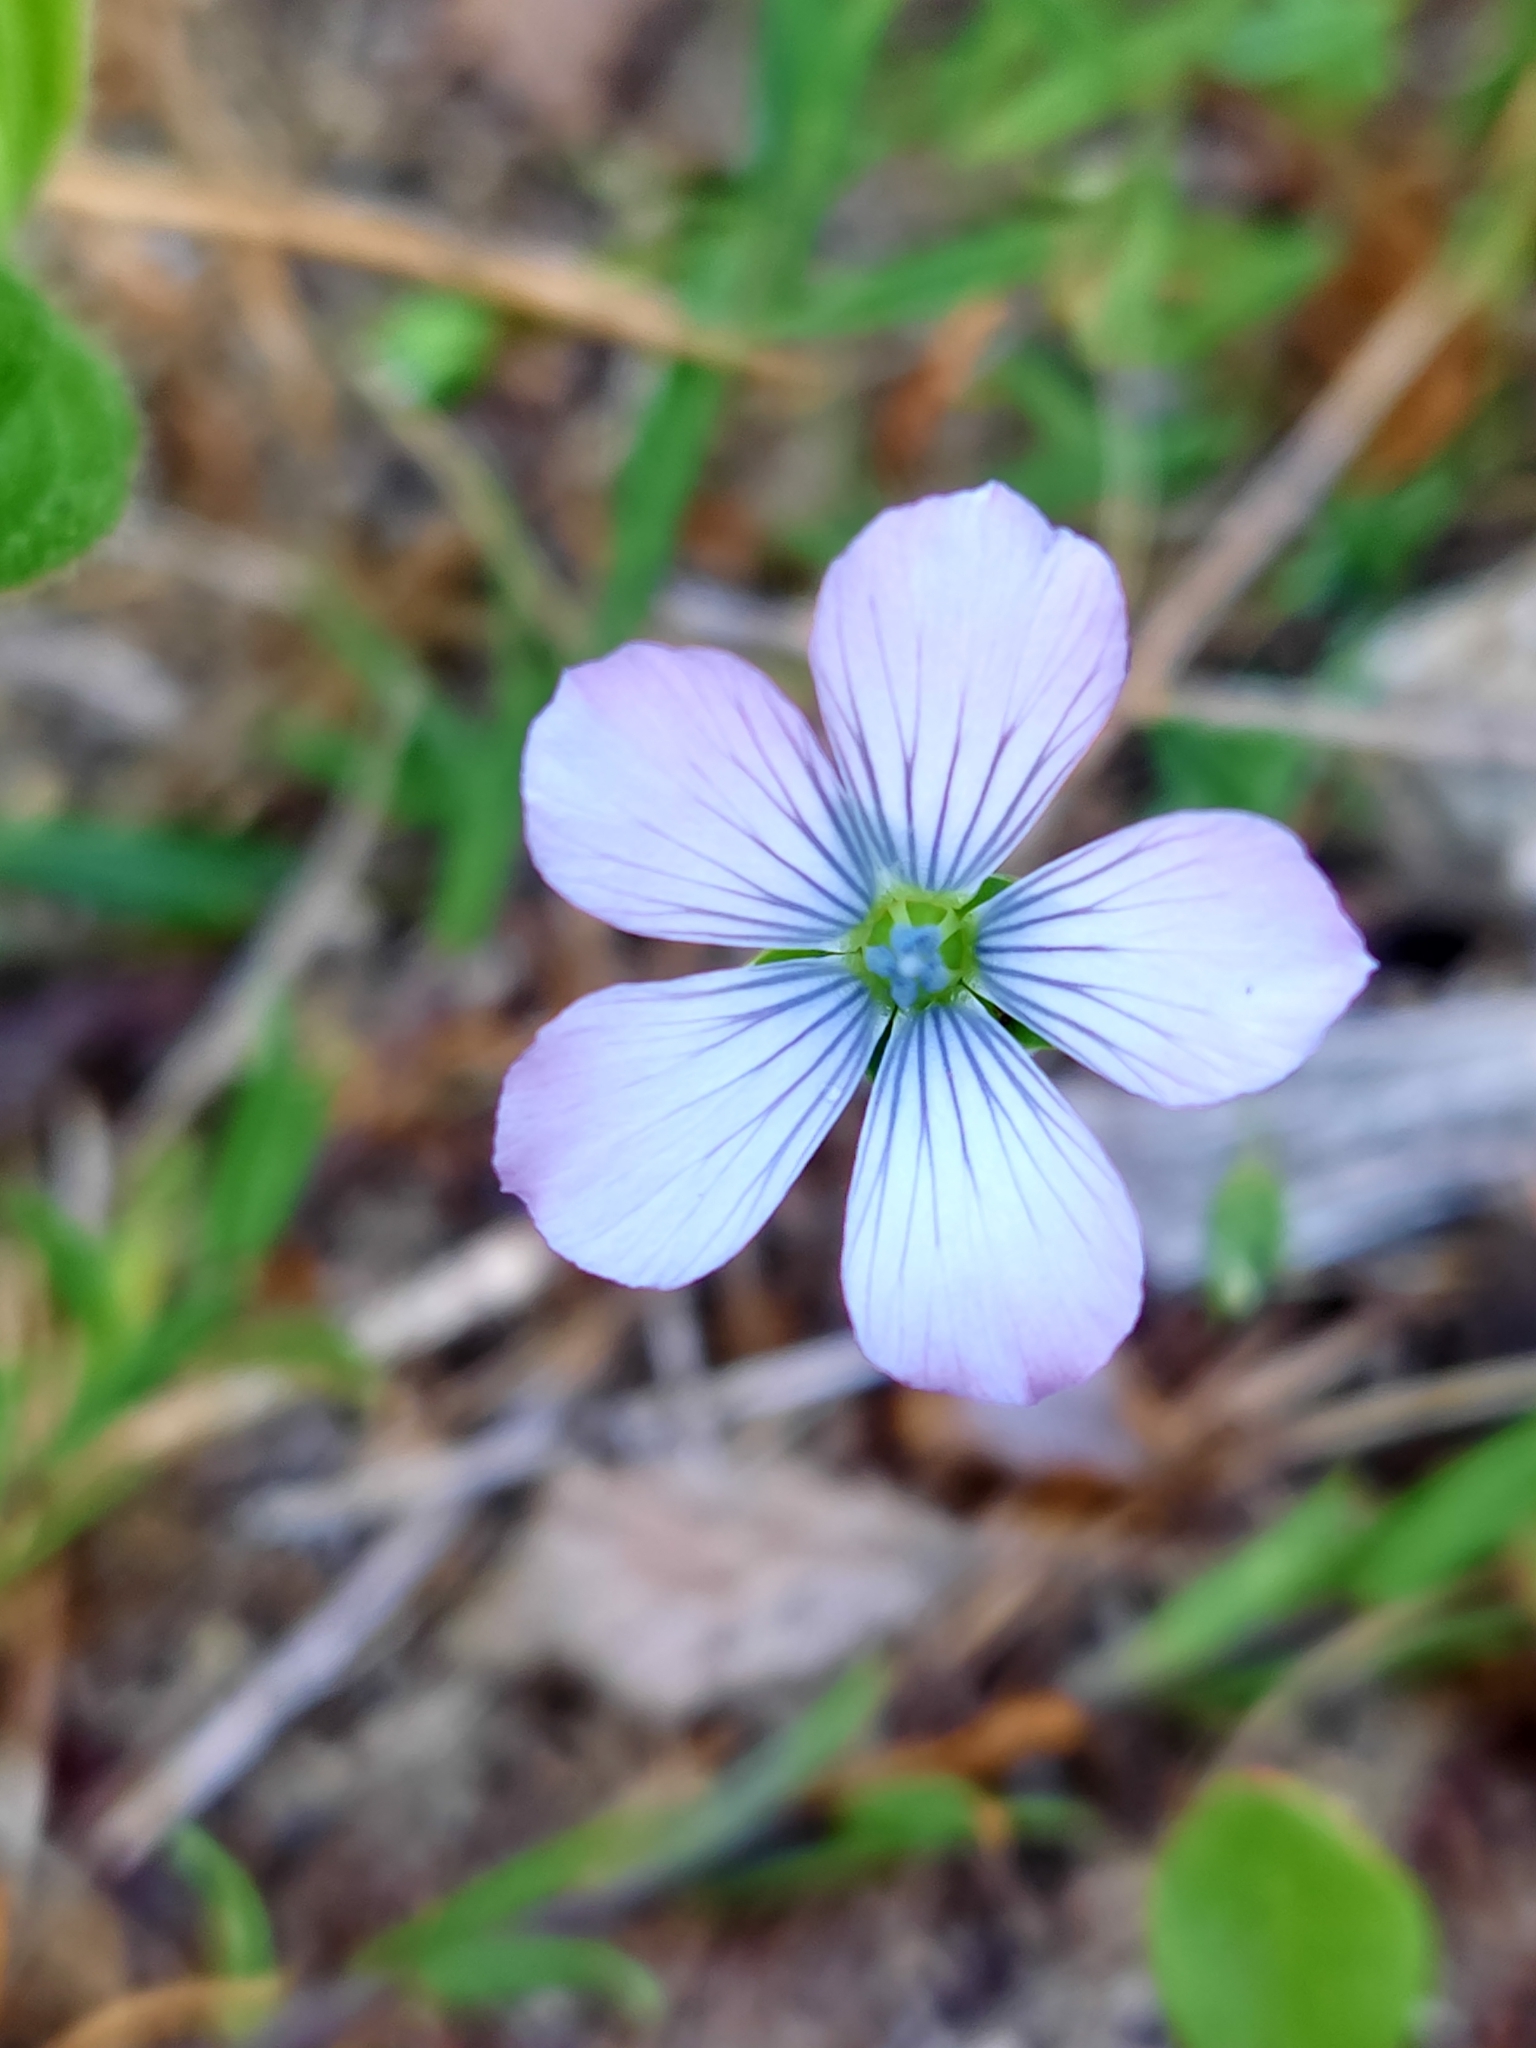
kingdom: Plantae
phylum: Tracheophyta
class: Magnoliopsida
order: Malpighiales
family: Linaceae
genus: Linum
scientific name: Linum bienne
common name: Pale flax
